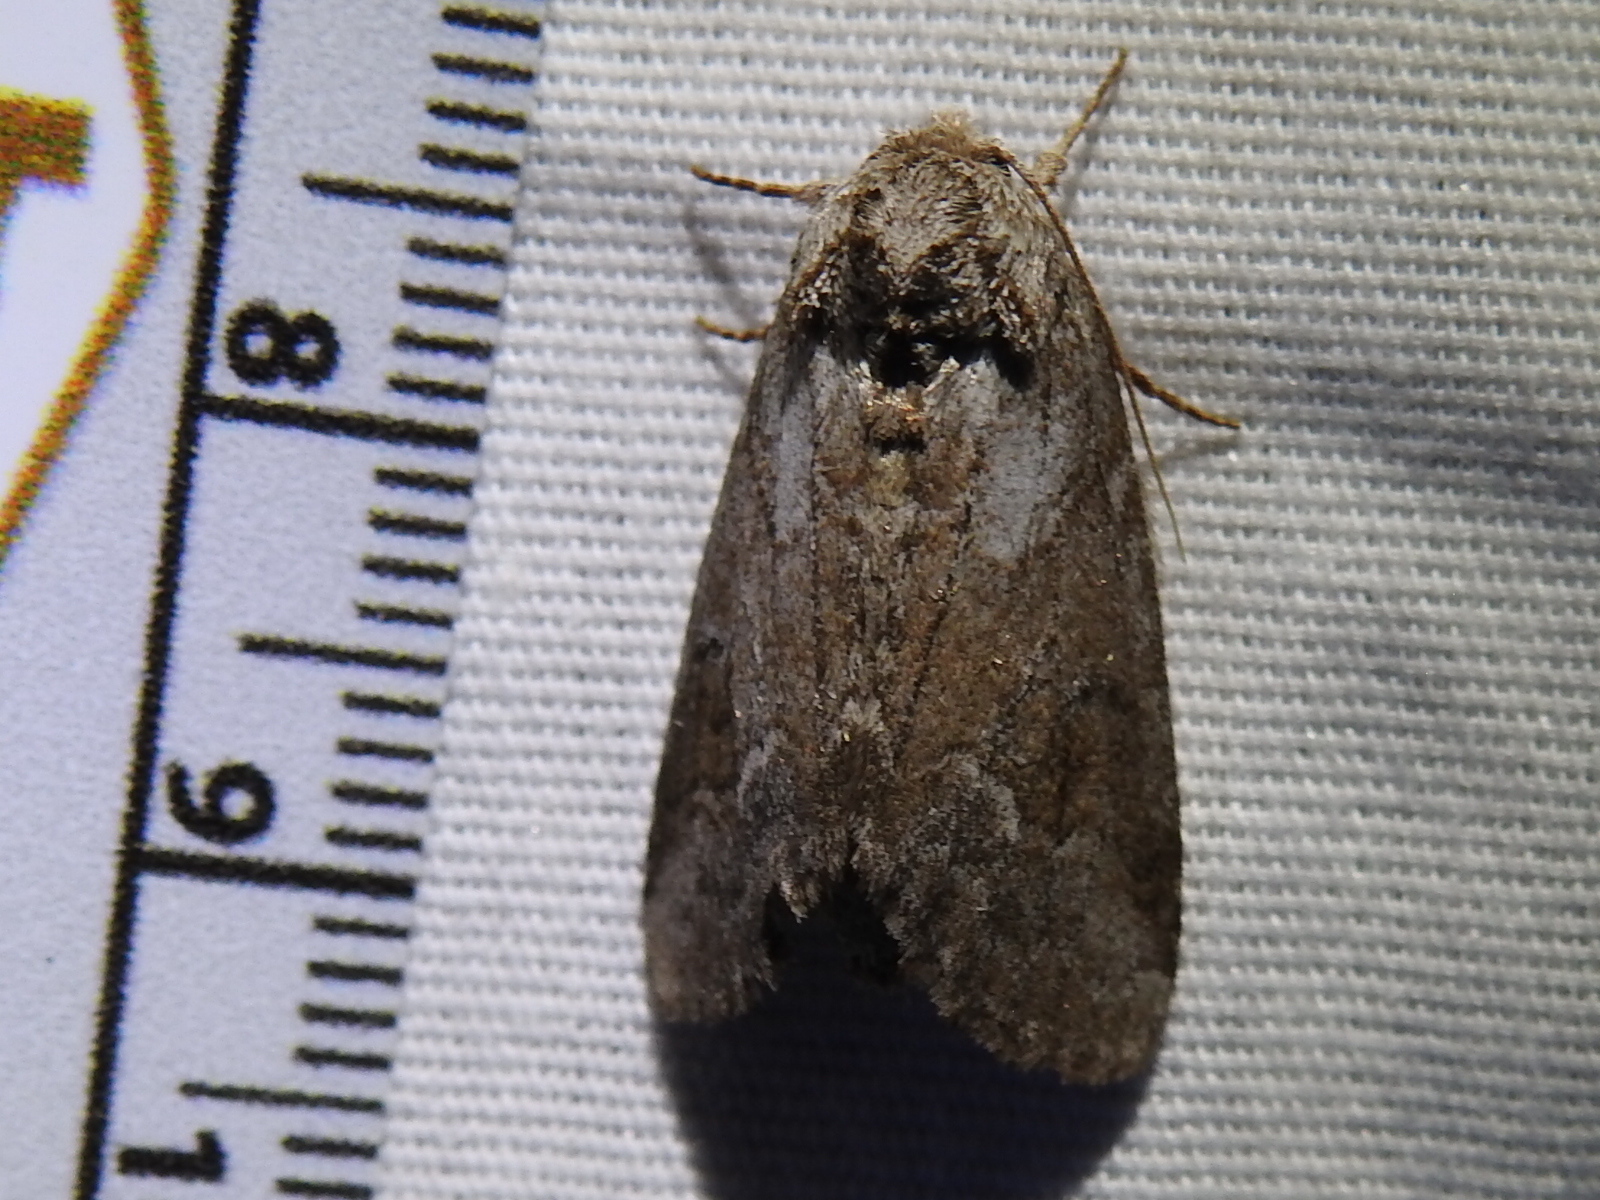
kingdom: Animalia
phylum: Arthropoda
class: Insecta
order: Lepidoptera
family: Notodontidae
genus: Lochmaeus
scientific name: Lochmaeus bilineata
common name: Double-lined prominent
